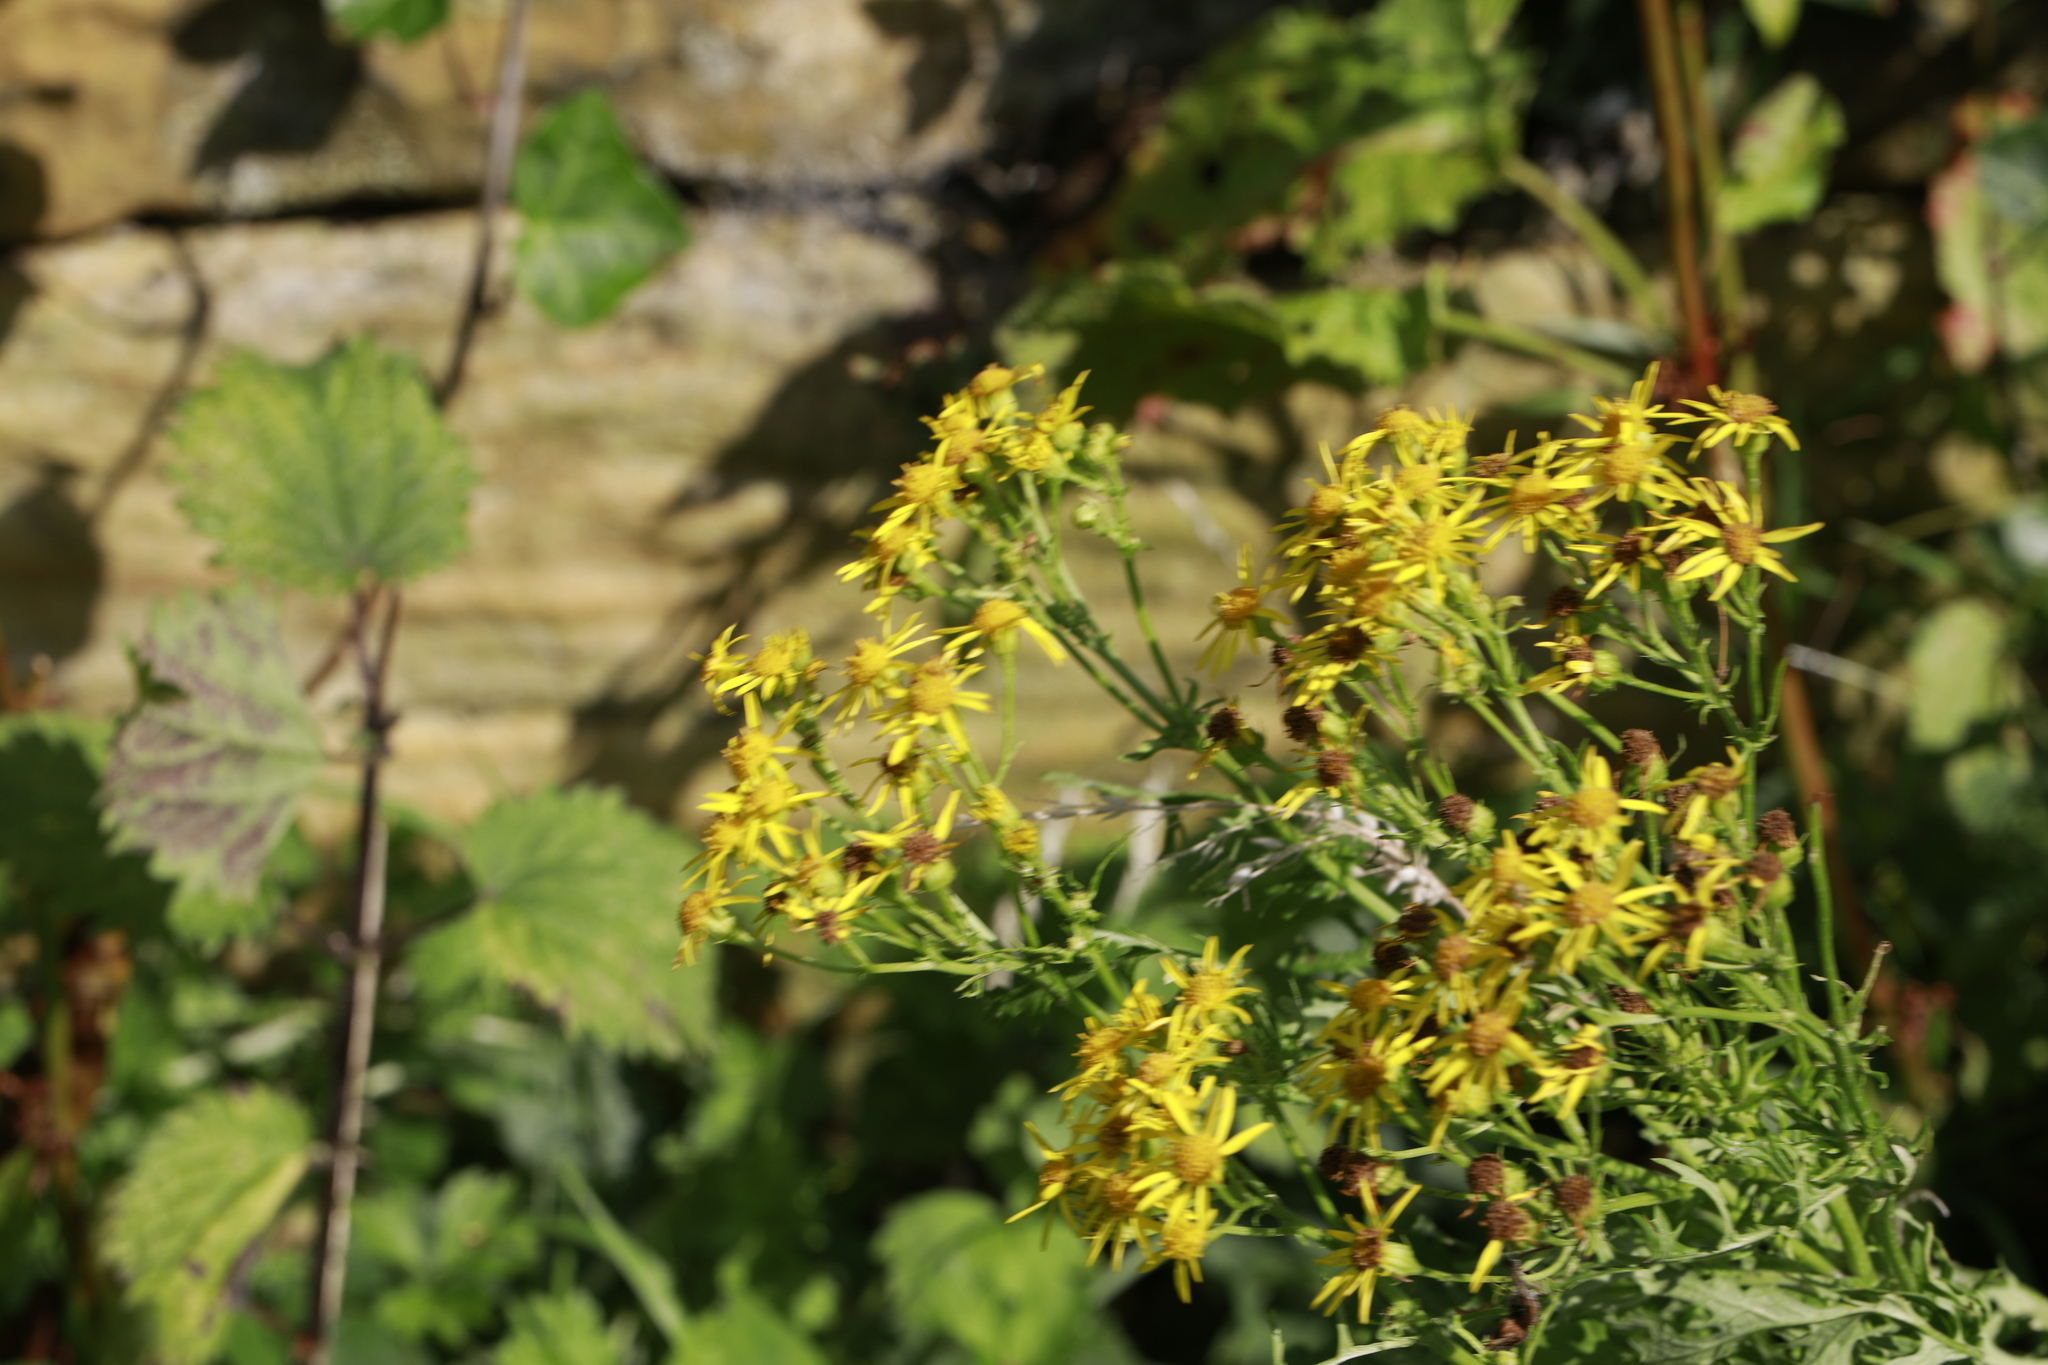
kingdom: Plantae
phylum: Tracheophyta
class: Magnoliopsida
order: Asterales
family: Asteraceae
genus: Jacobaea
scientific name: Jacobaea vulgaris
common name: Stinking willie
